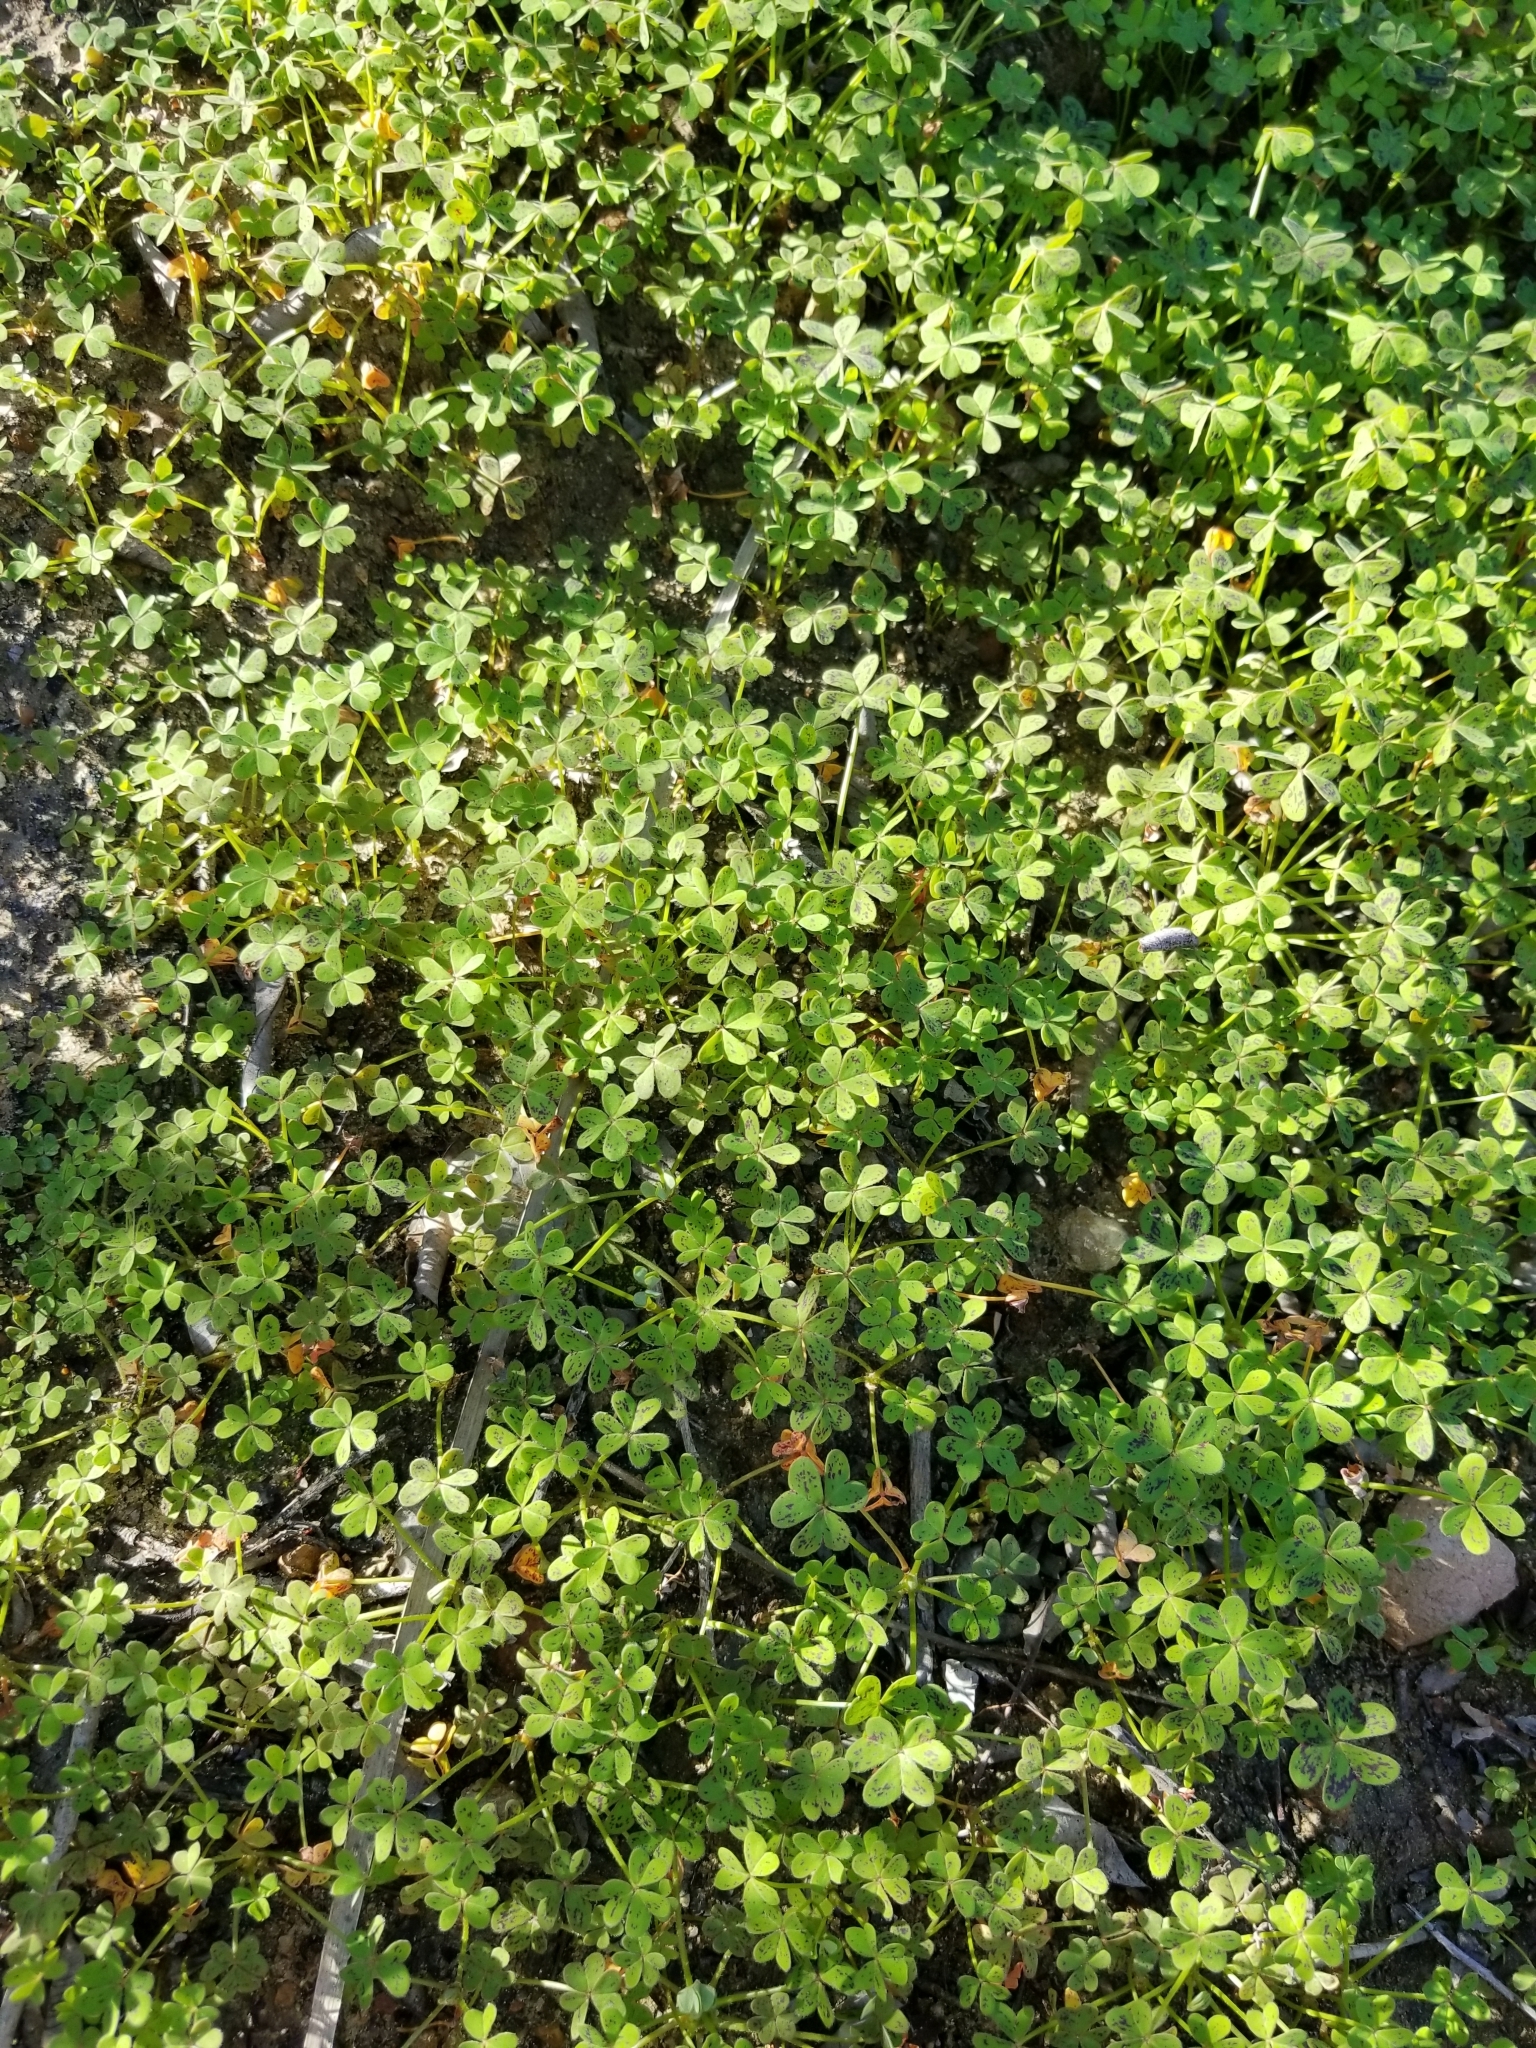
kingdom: Plantae
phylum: Tracheophyta
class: Magnoliopsida
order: Oxalidales
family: Oxalidaceae
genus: Oxalis
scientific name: Oxalis pes-caprae
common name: Bermuda-buttercup
